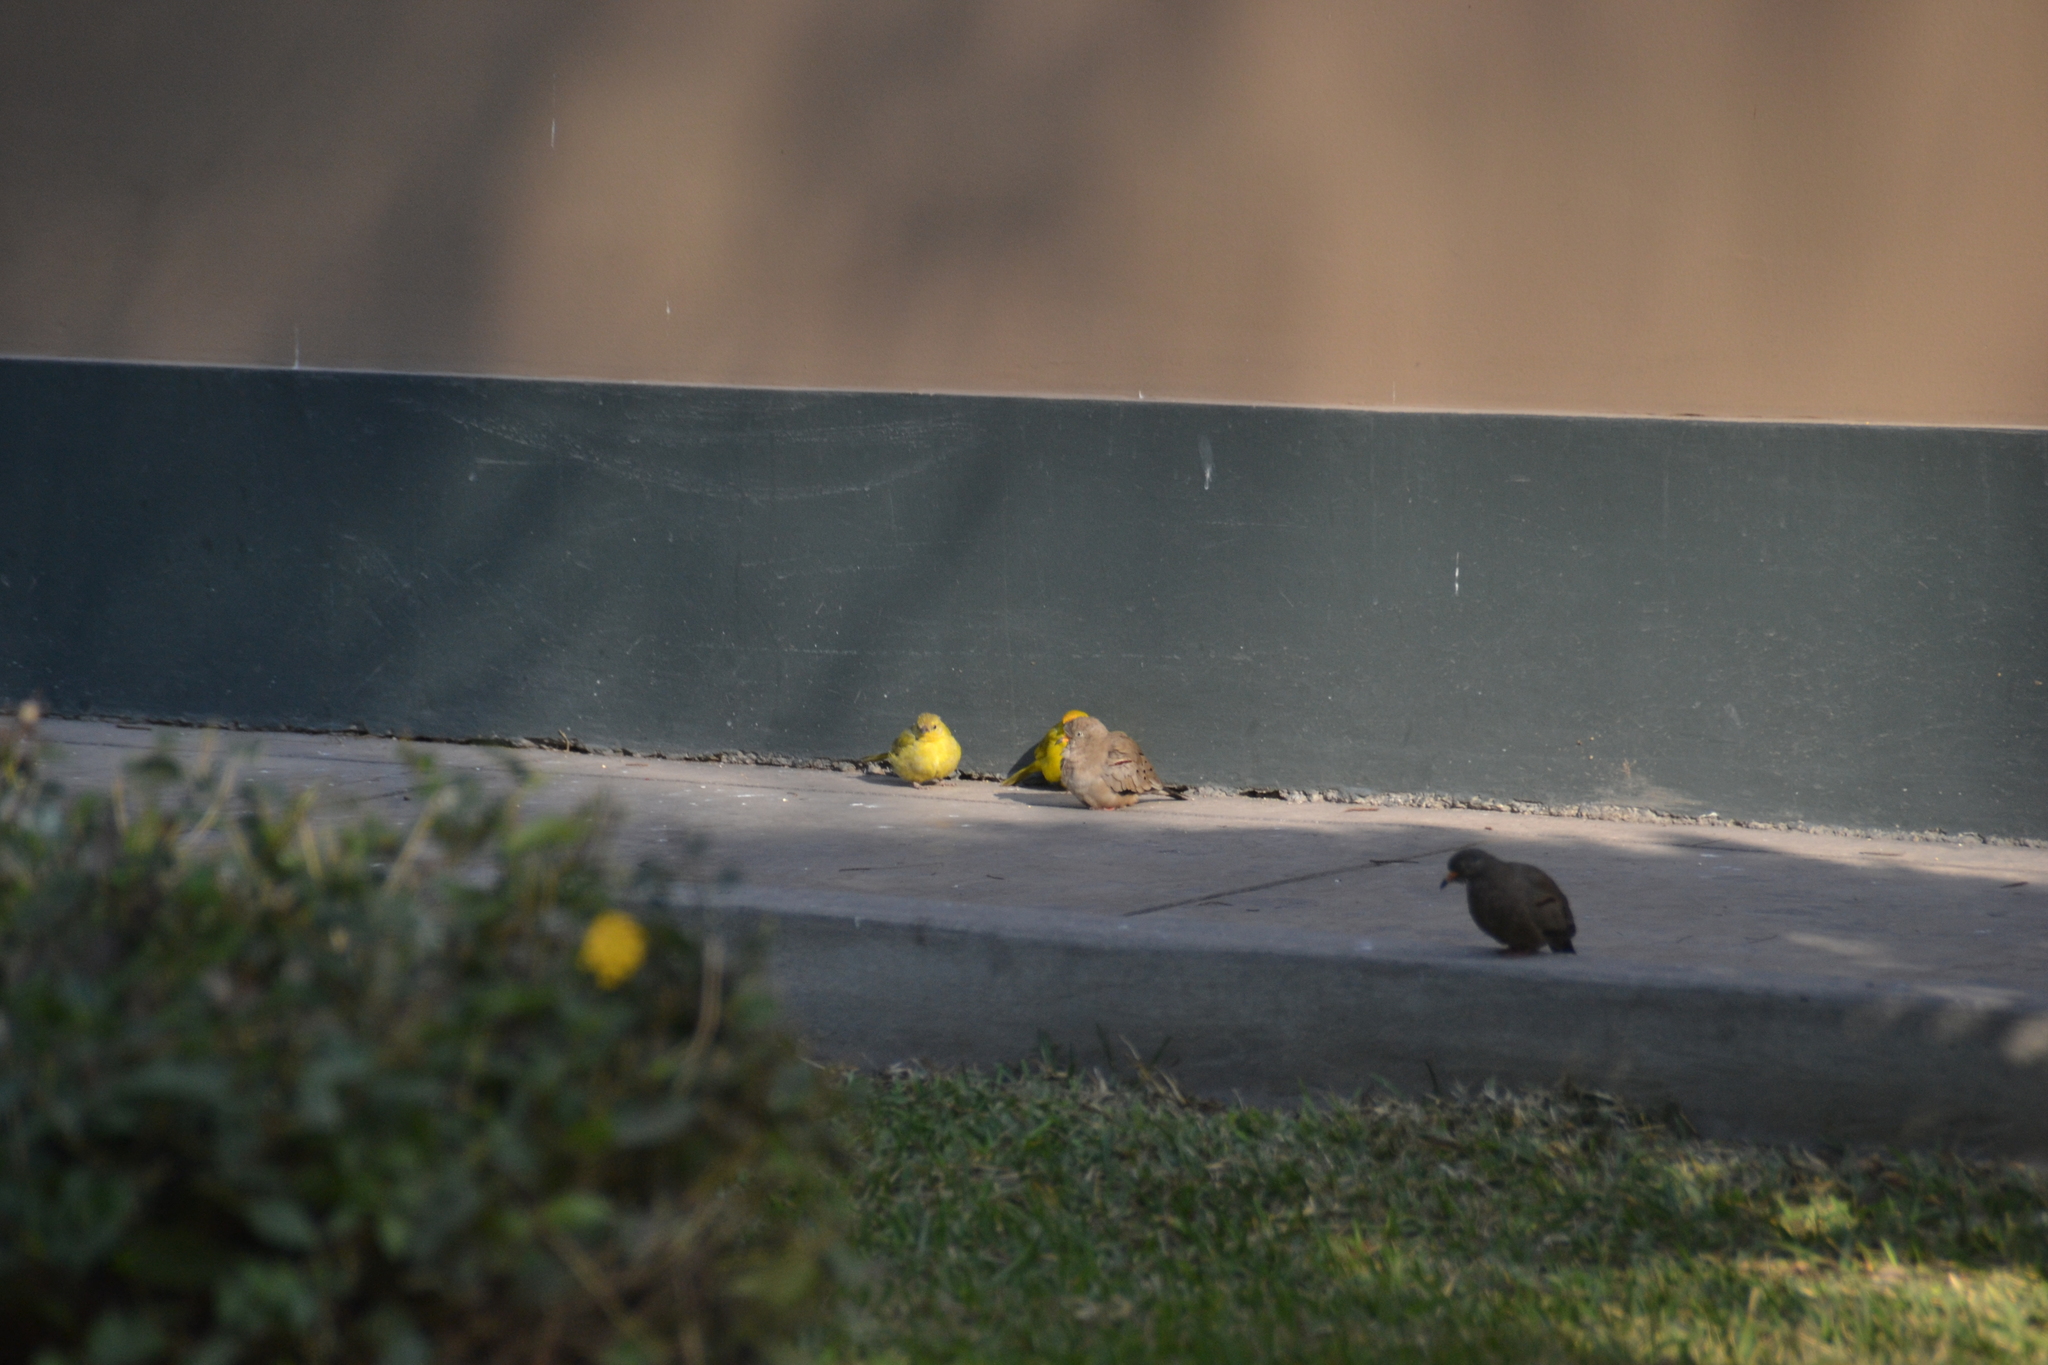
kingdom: Animalia
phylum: Chordata
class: Aves
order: Columbiformes
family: Columbidae
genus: Columbina
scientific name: Columbina cruziana
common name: Croaking ground dove
